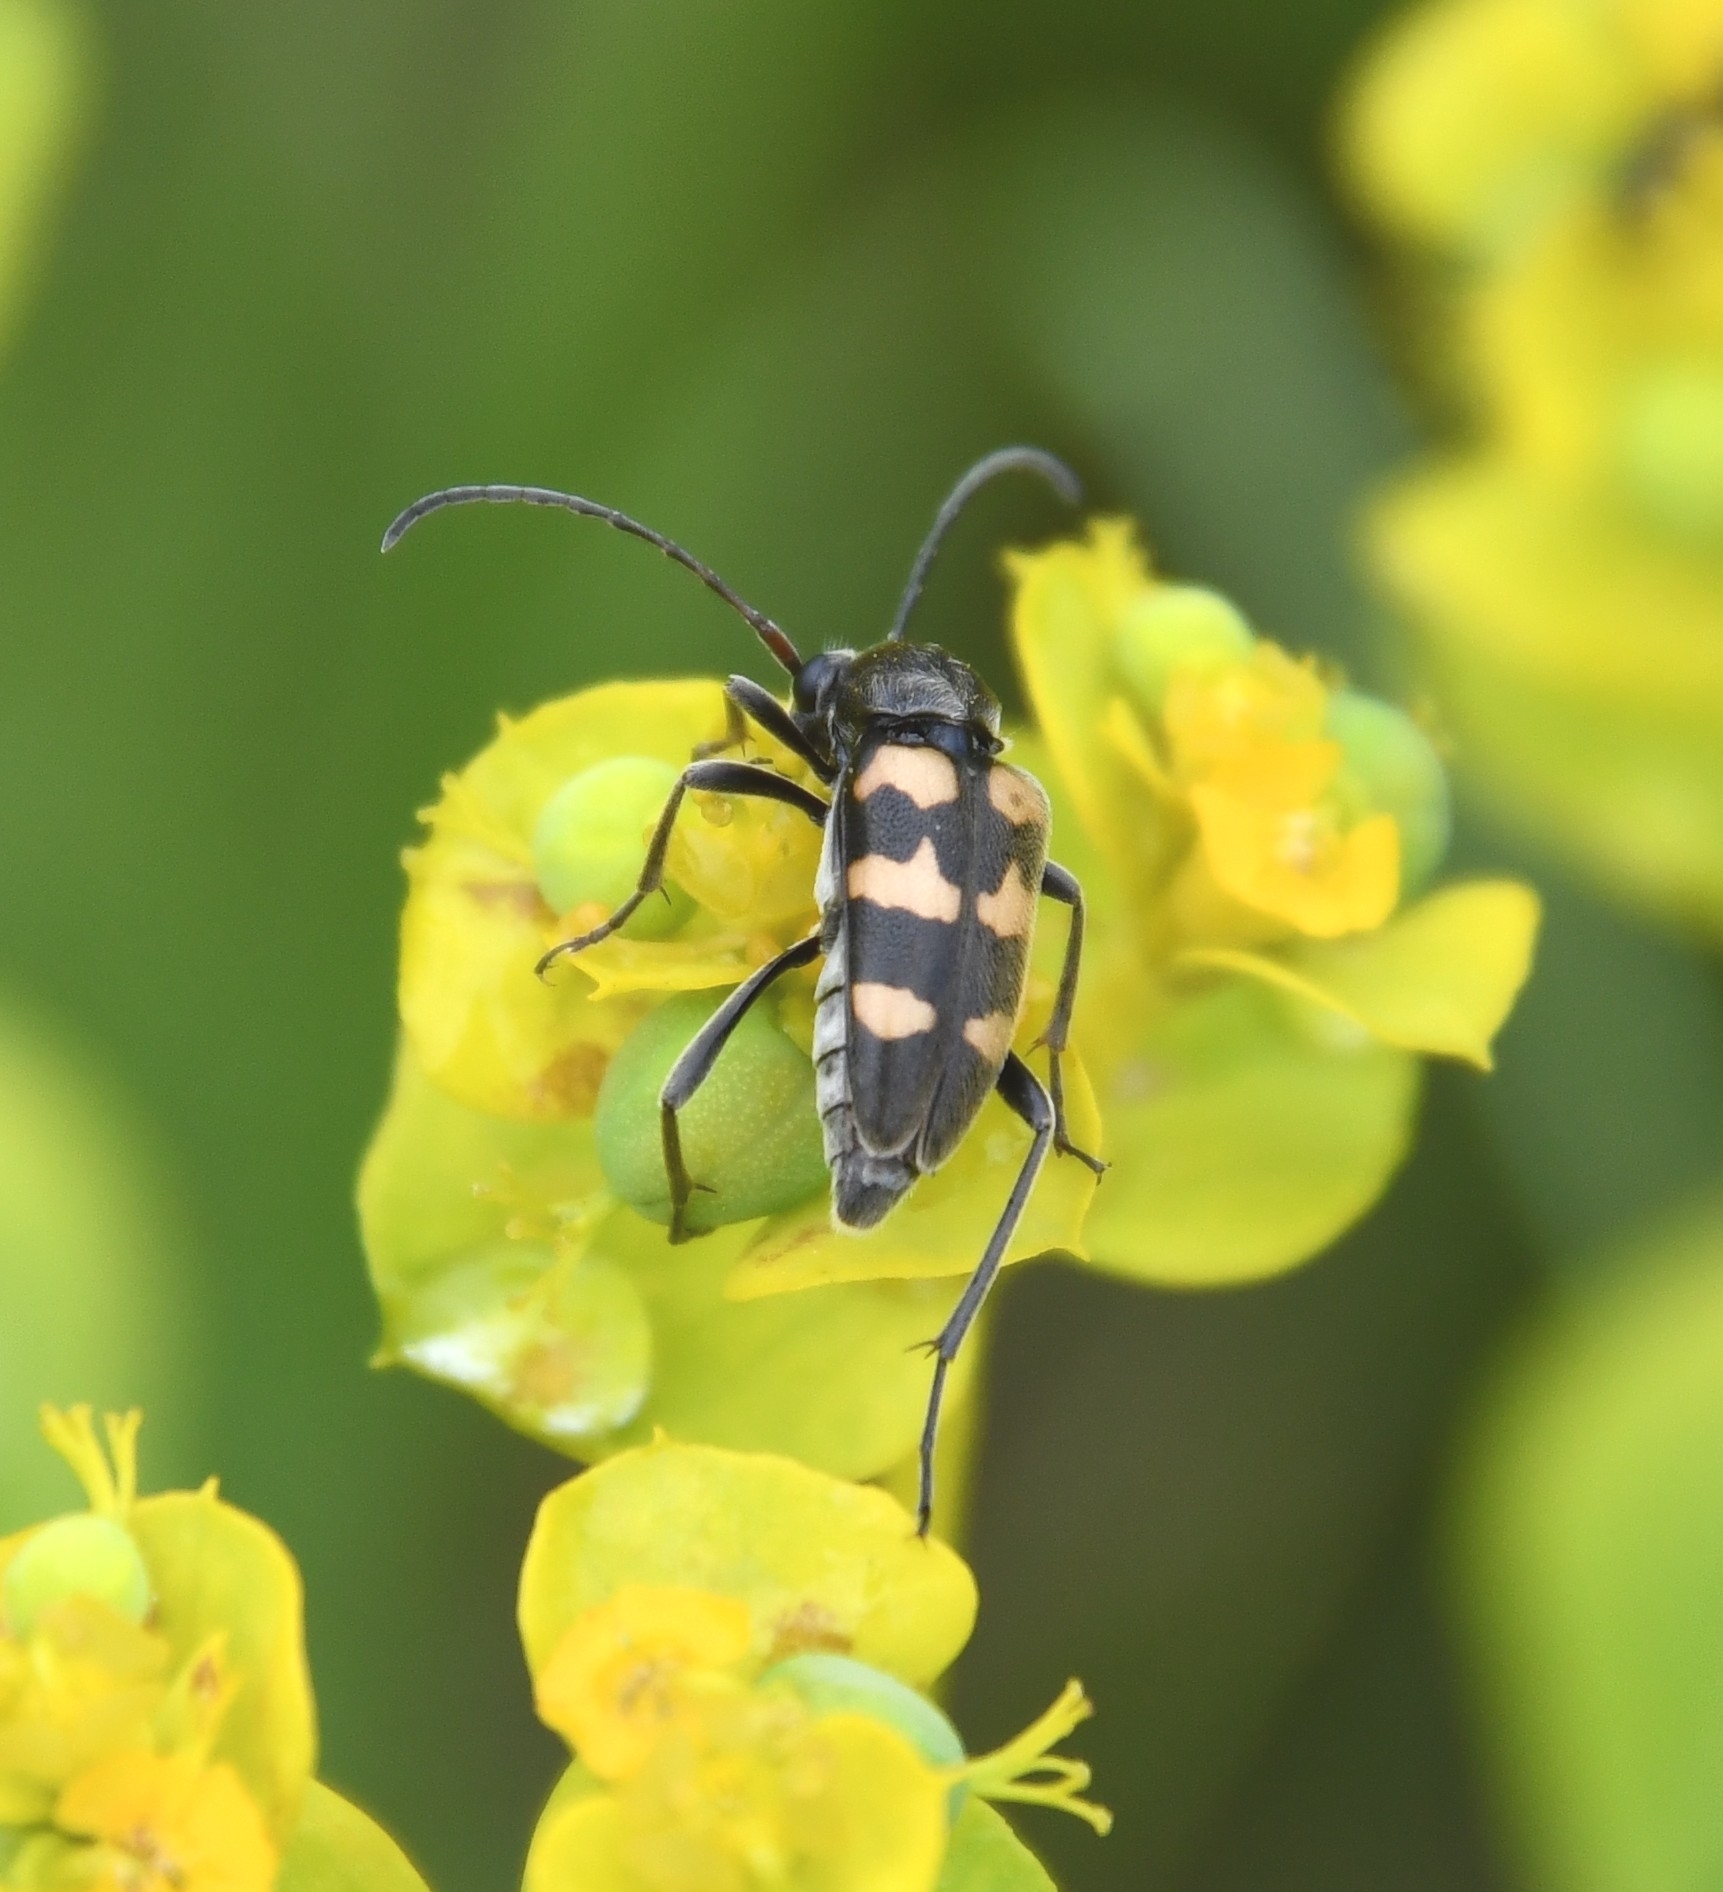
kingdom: Animalia
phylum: Arthropoda
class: Insecta
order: Coleoptera
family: Cerambycidae
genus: Pachytodes
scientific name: Pachytodes
